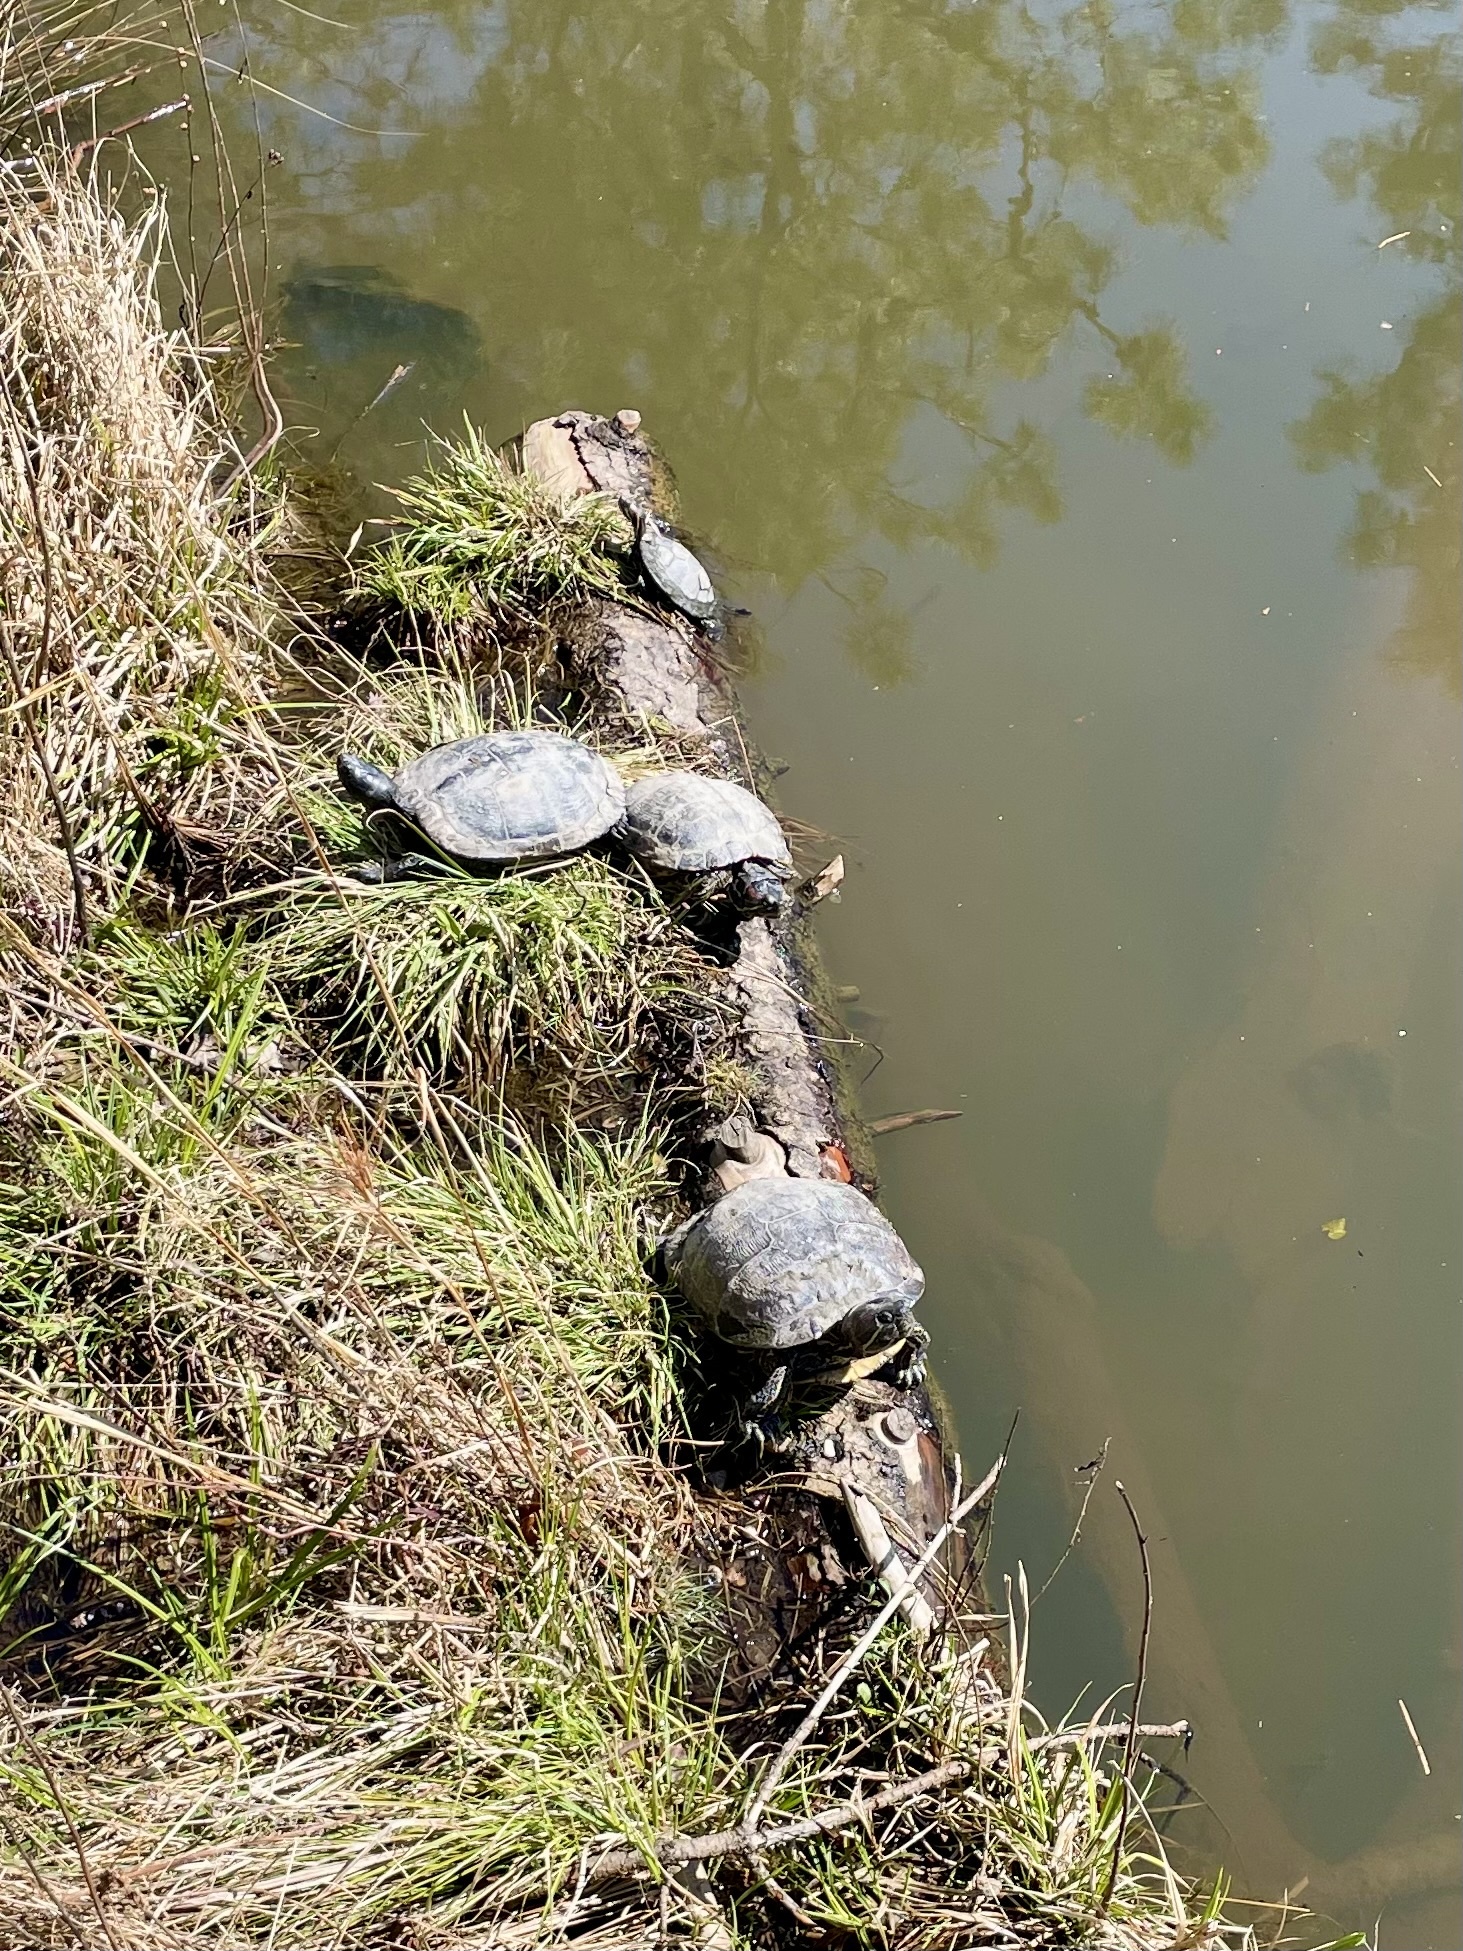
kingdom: Animalia
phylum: Chordata
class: Testudines
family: Emydidae
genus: Trachemys
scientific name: Trachemys scripta
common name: Slider
